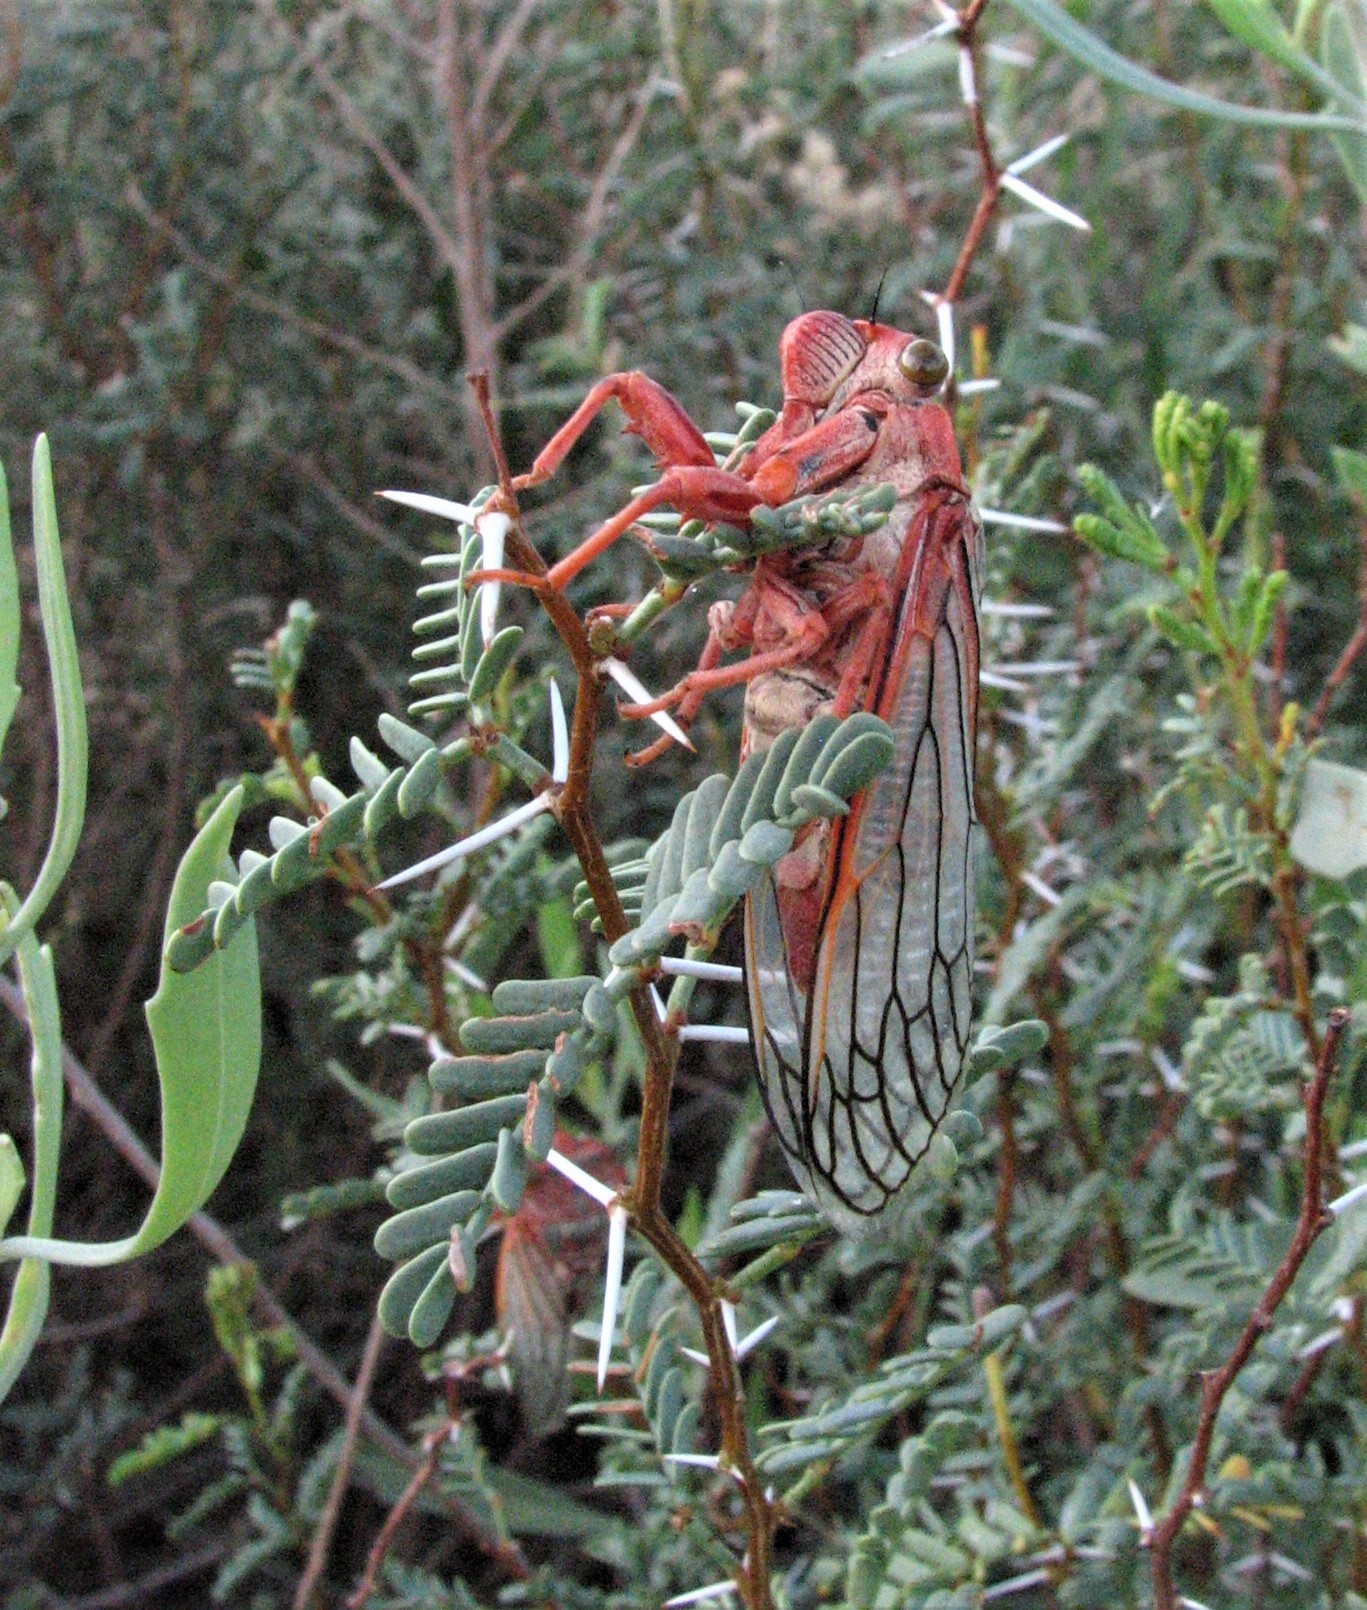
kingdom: Animalia
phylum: Arthropoda
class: Insecta
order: Hemiptera
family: Cicadidae
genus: Calliopsida
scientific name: Calliopsida cinnabarina
